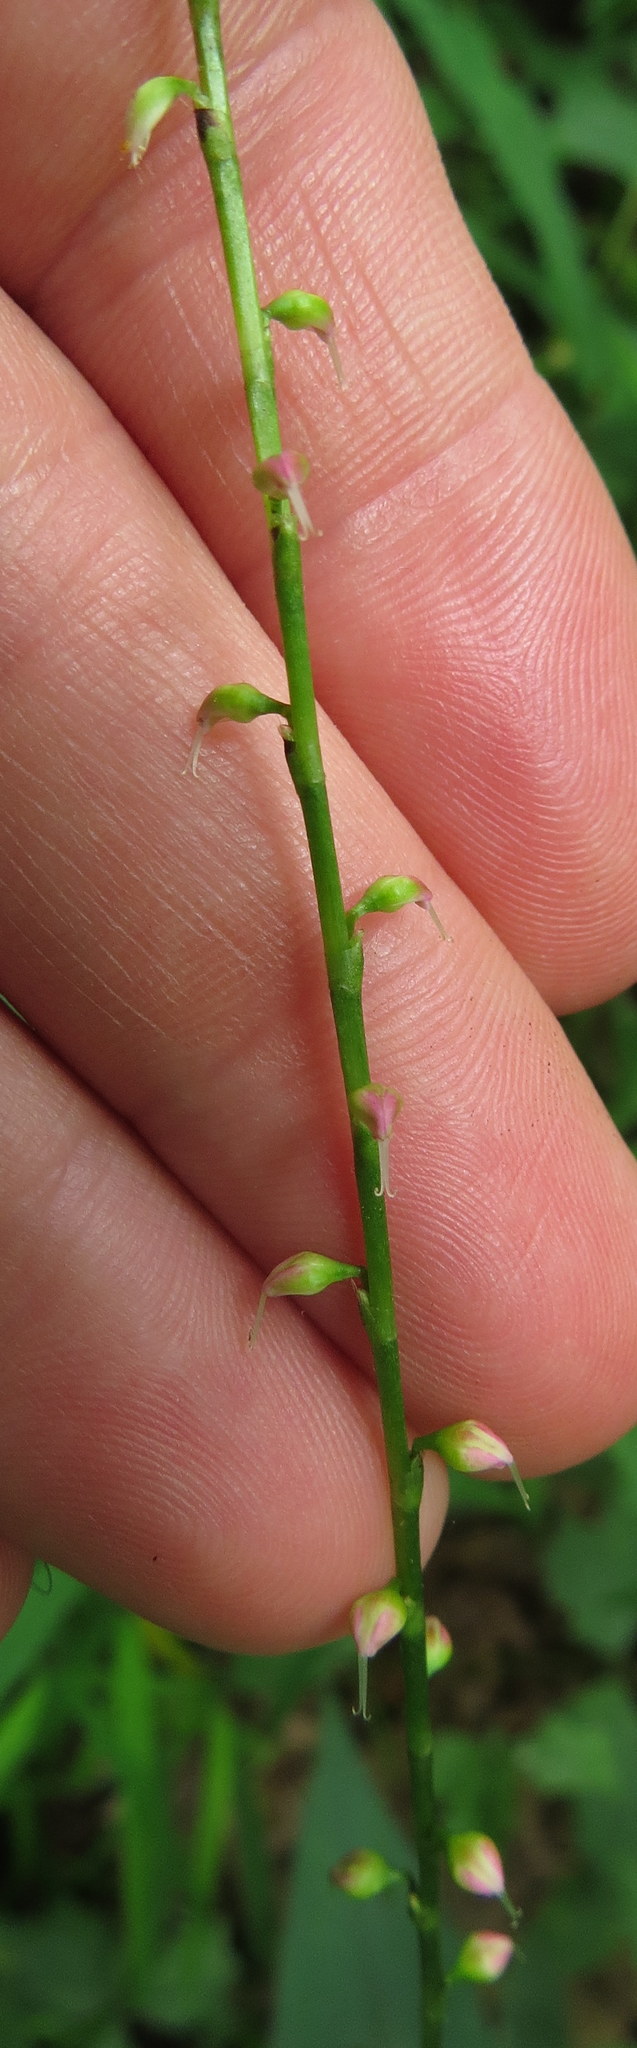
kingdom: Plantae
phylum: Tracheophyta
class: Magnoliopsida
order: Caryophyllales
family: Polygonaceae
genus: Persicaria
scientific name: Persicaria virginiana
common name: Jumpseed
